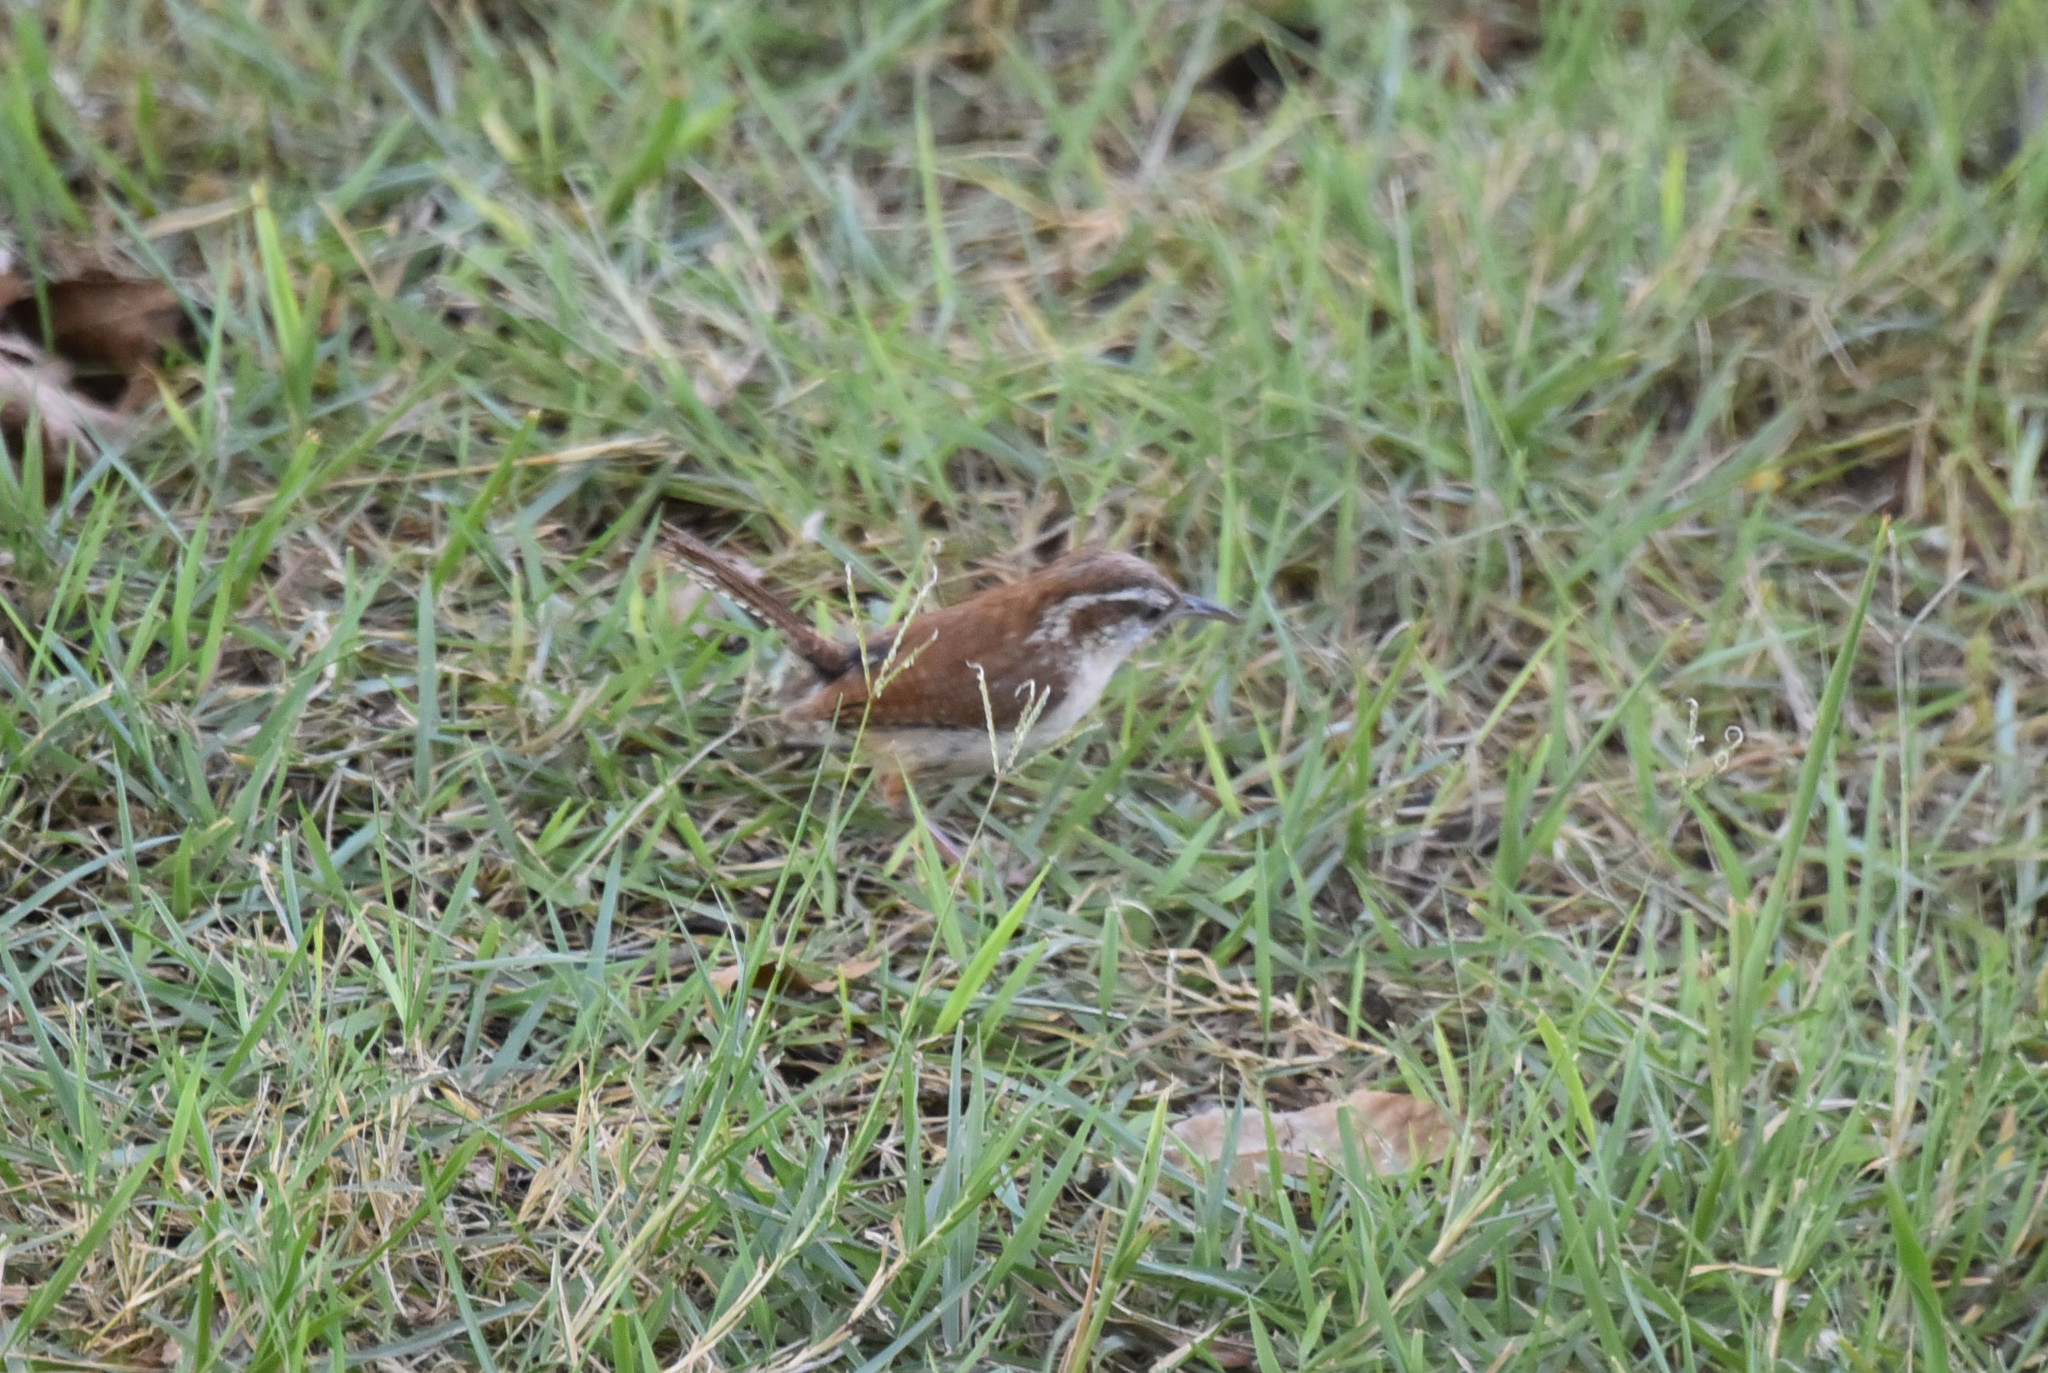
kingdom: Animalia
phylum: Chordata
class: Aves
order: Passeriformes
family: Troglodytidae
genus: Thryothorus
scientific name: Thryothorus ludovicianus
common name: Carolina wren
